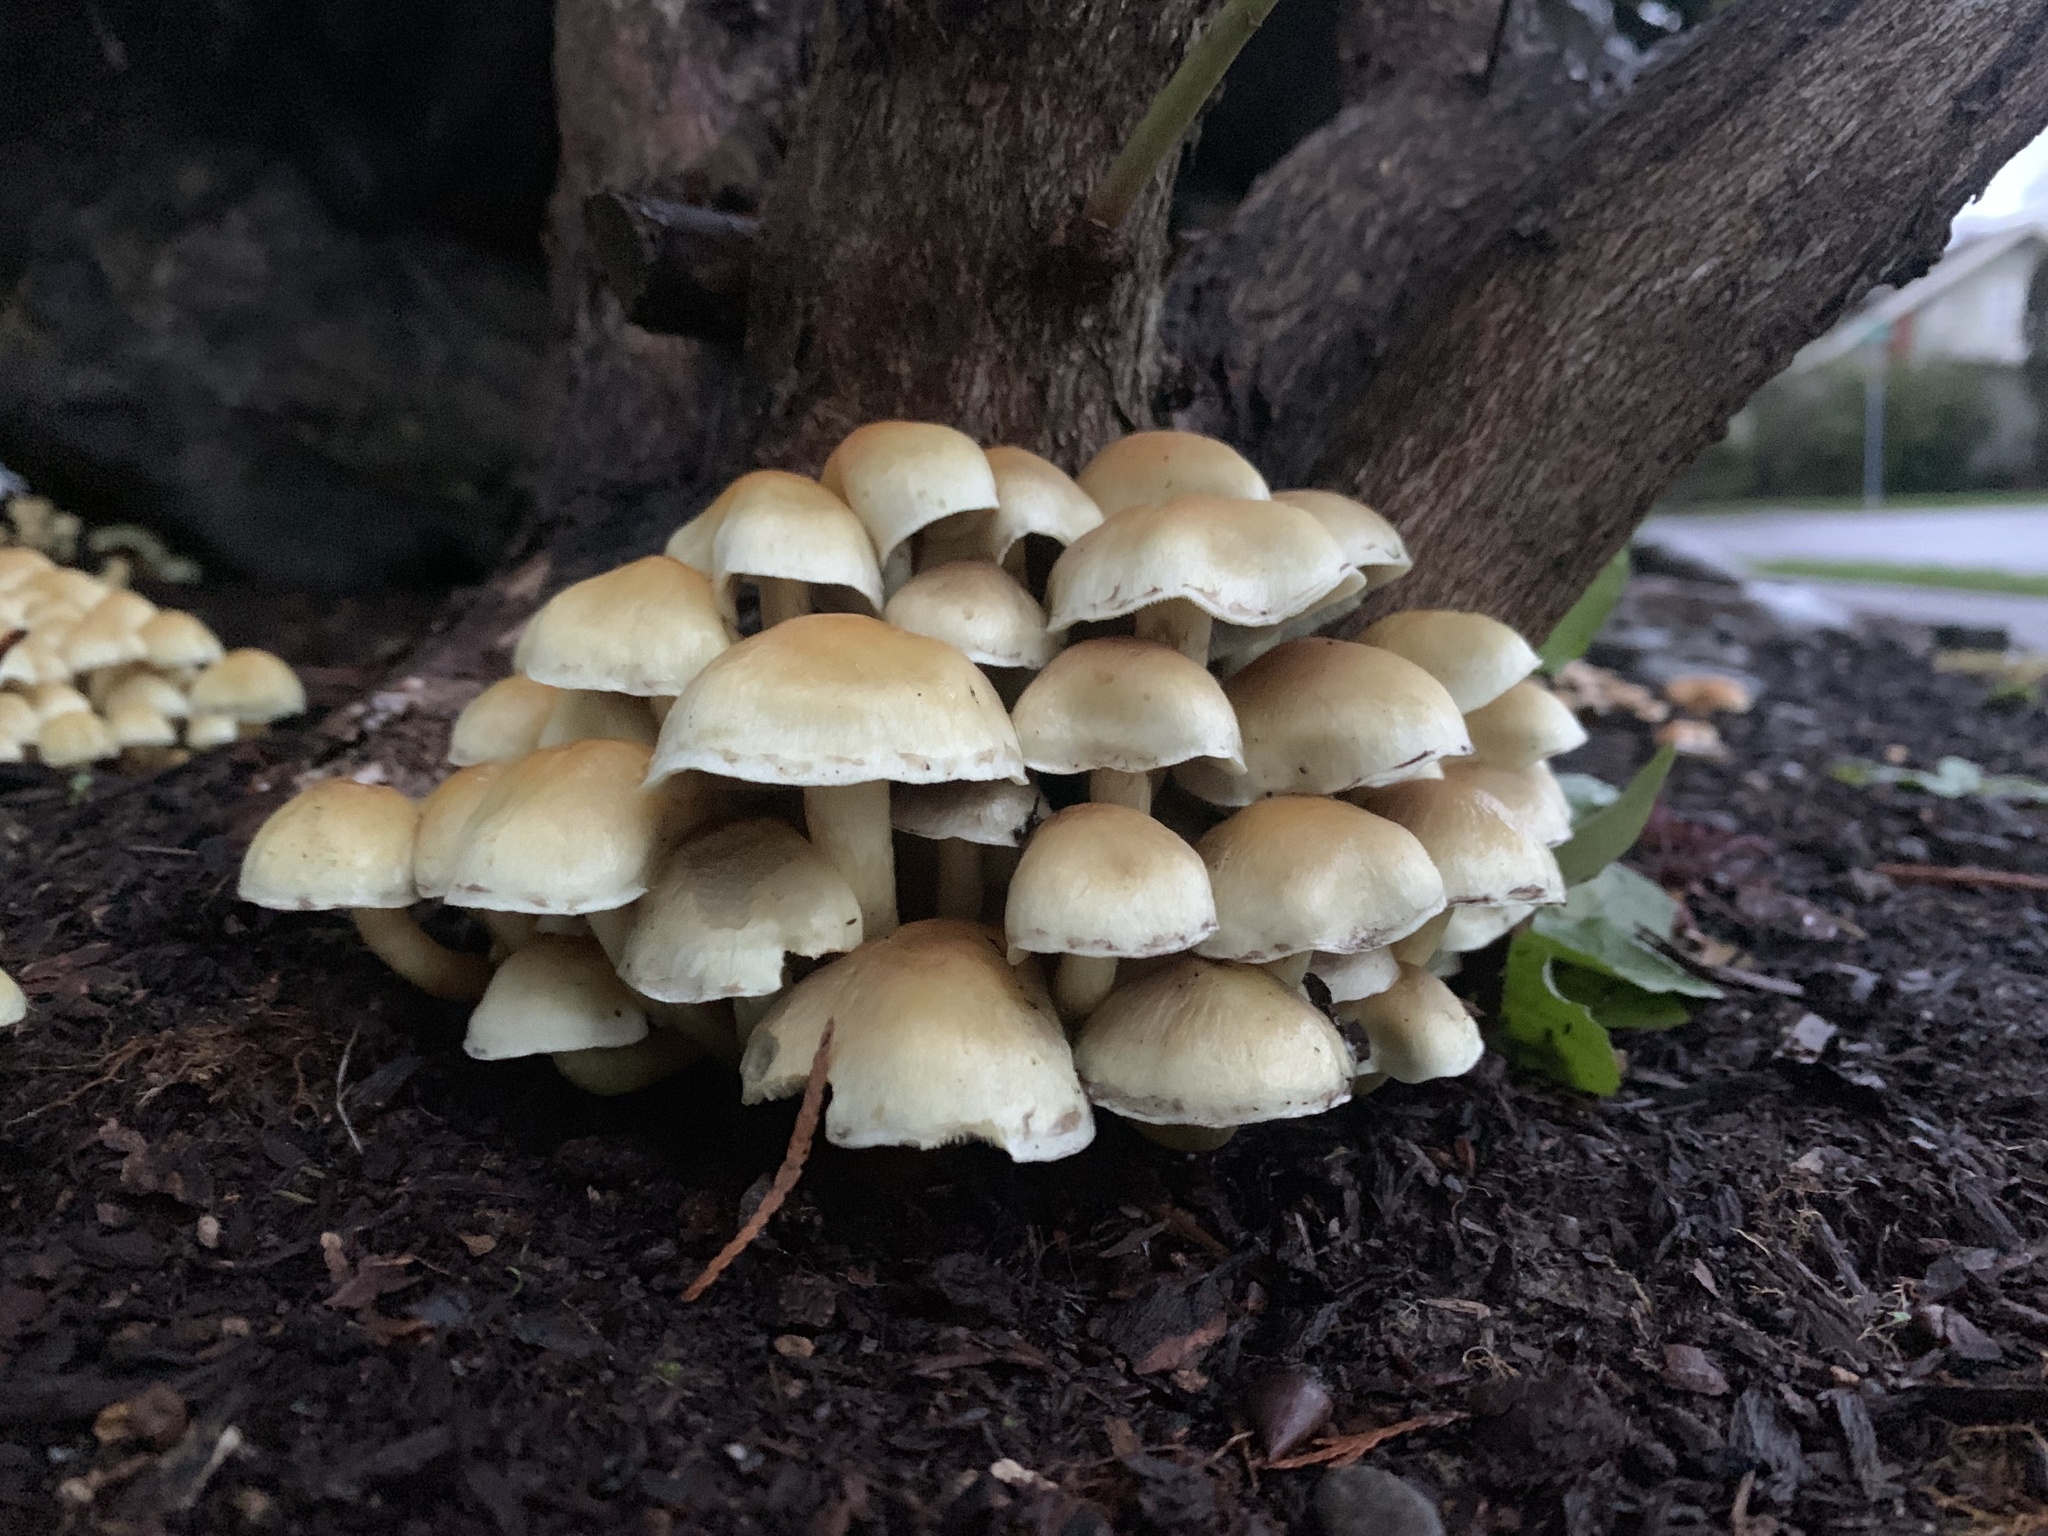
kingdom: Fungi
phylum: Basidiomycota
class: Agaricomycetes
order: Agaricales
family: Strophariaceae
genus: Hypholoma
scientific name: Hypholoma fasciculare
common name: Sulphur tuft
